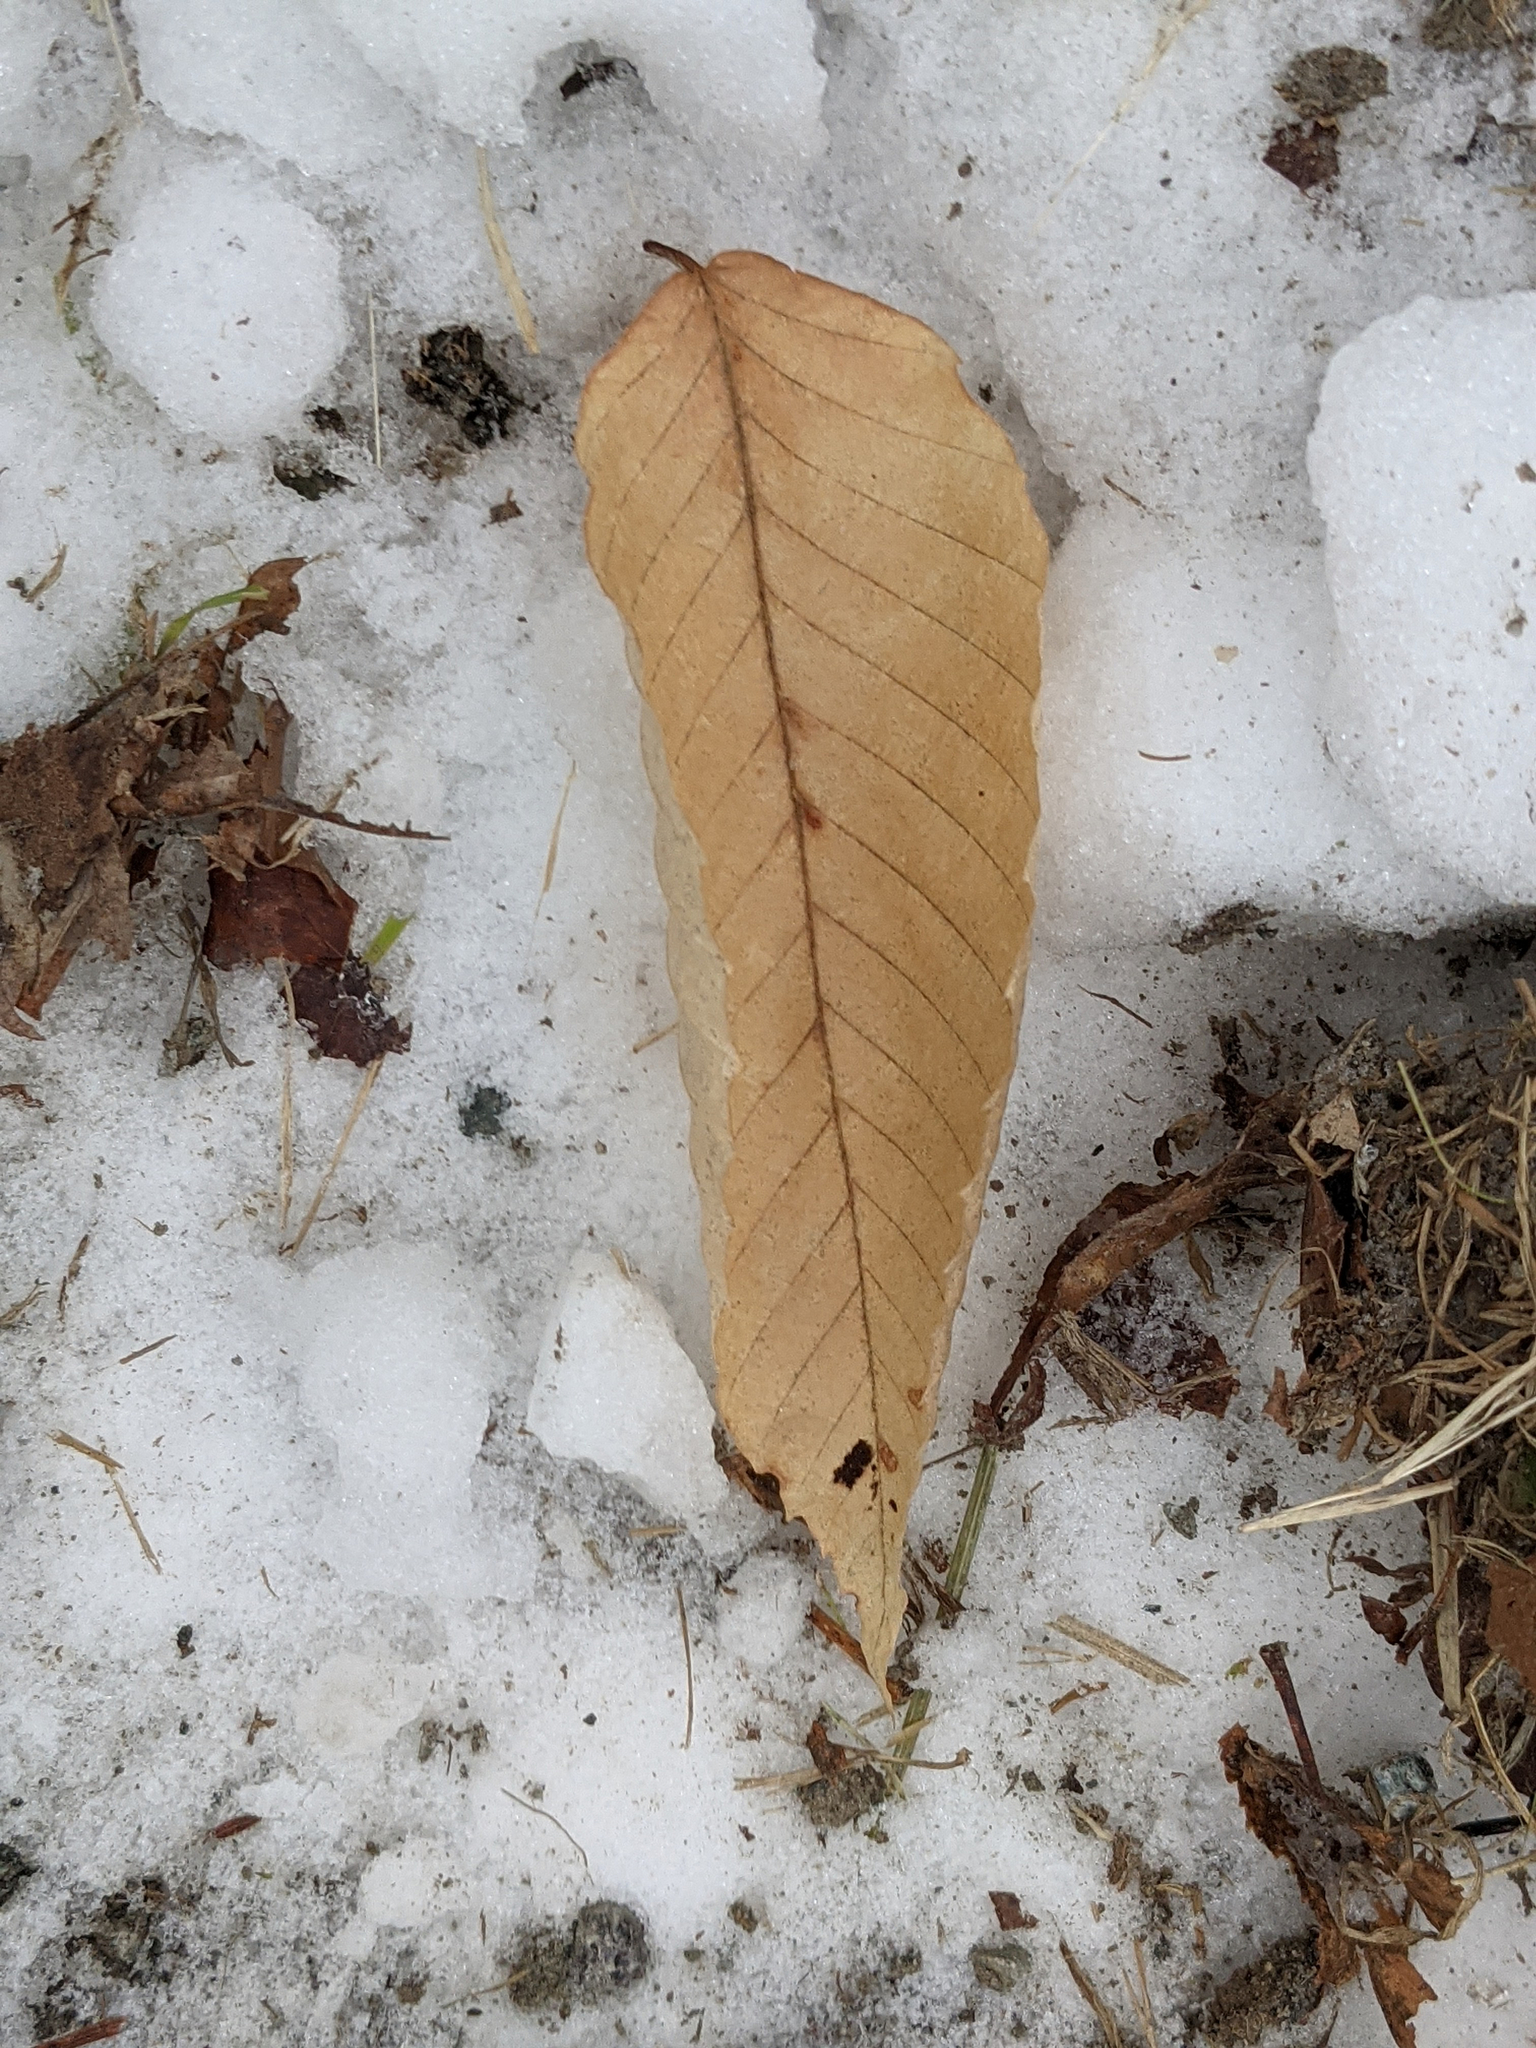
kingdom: Plantae
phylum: Tracheophyta
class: Magnoliopsida
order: Fagales
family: Fagaceae
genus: Fagus
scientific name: Fagus grandifolia
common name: American beech
